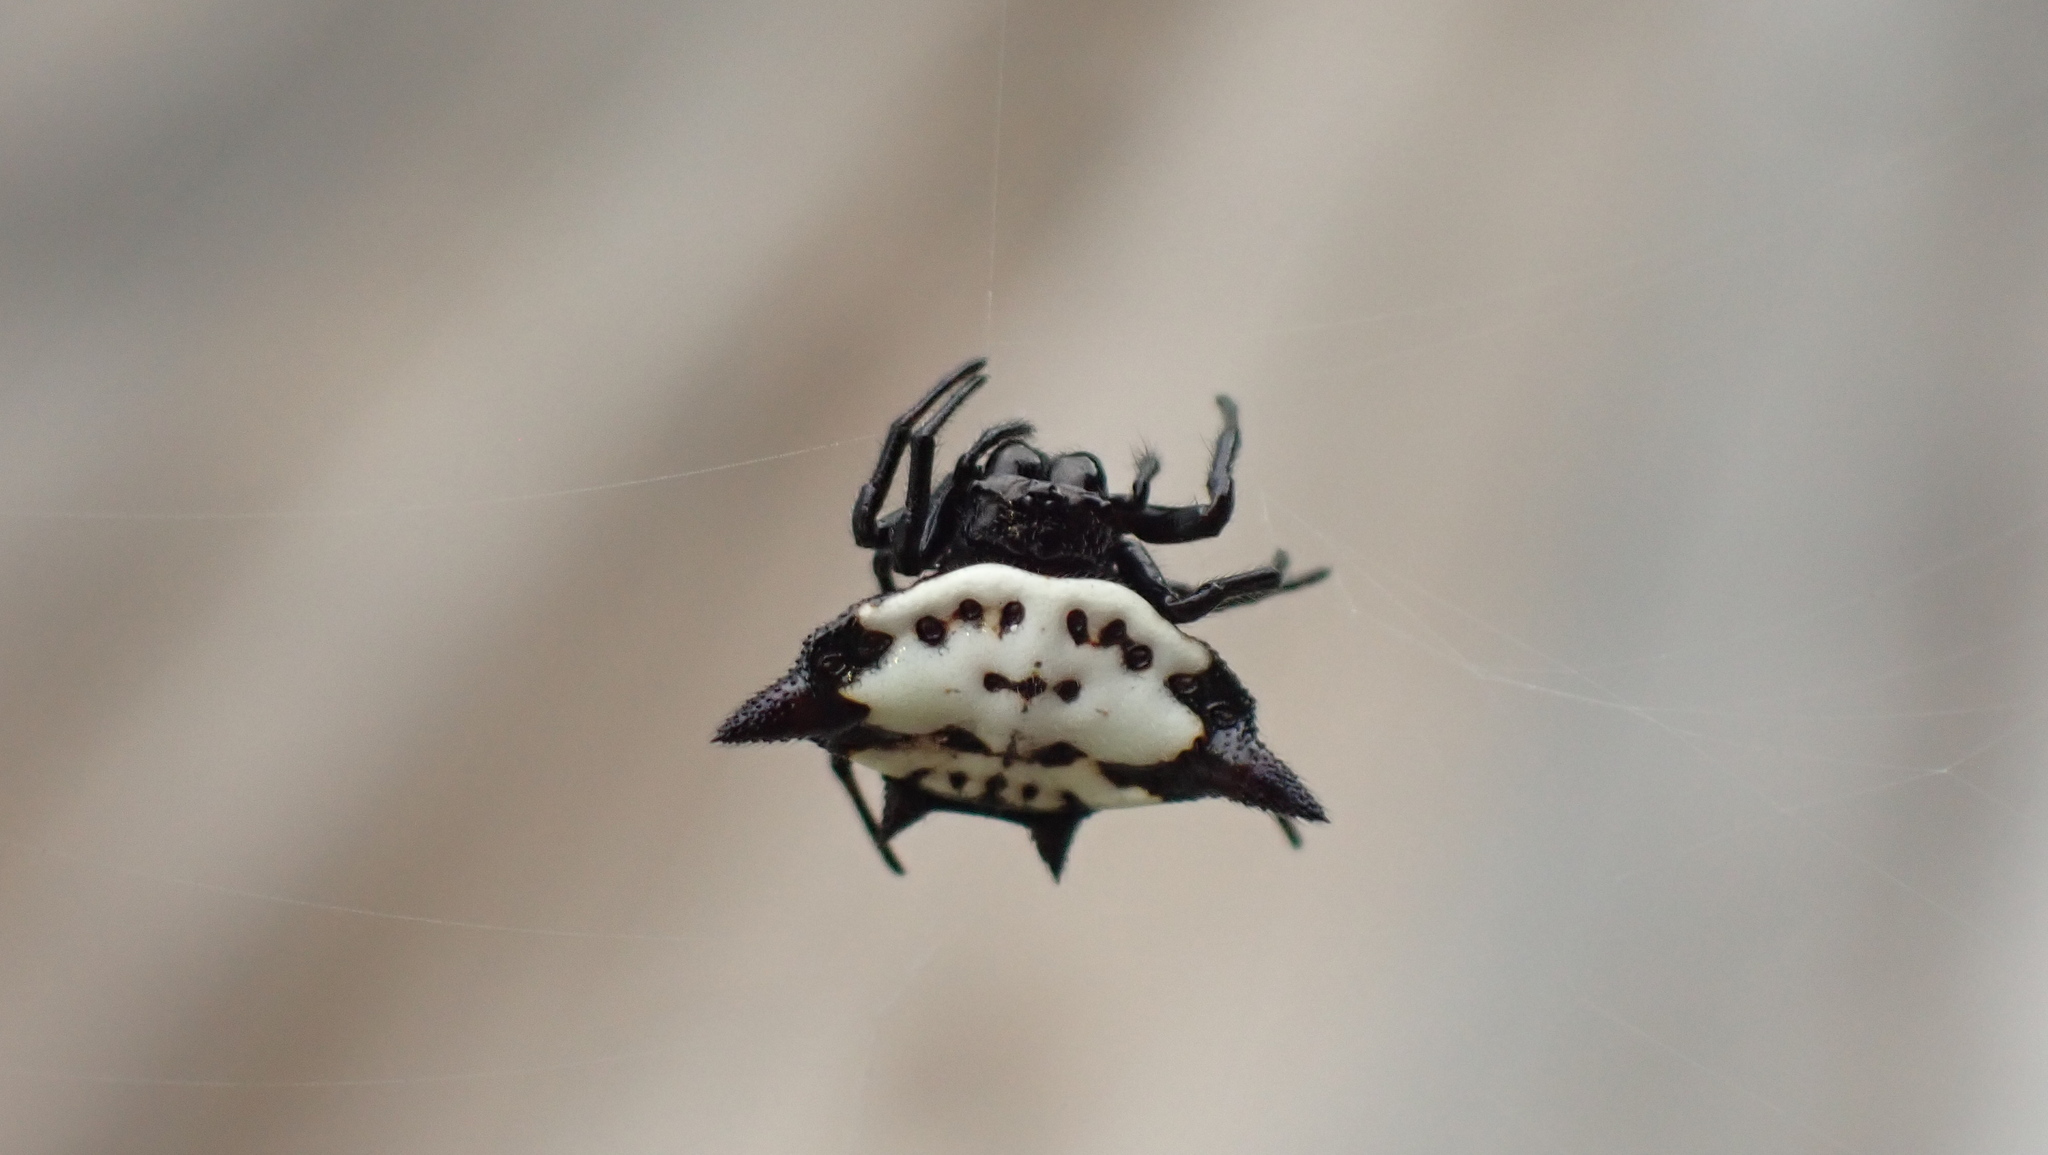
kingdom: Animalia
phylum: Arthropoda
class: Arachnida
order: Araneae
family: Araneidae
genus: Gasteracantha
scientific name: Gasteracantha cancriformis
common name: Orb weavers
